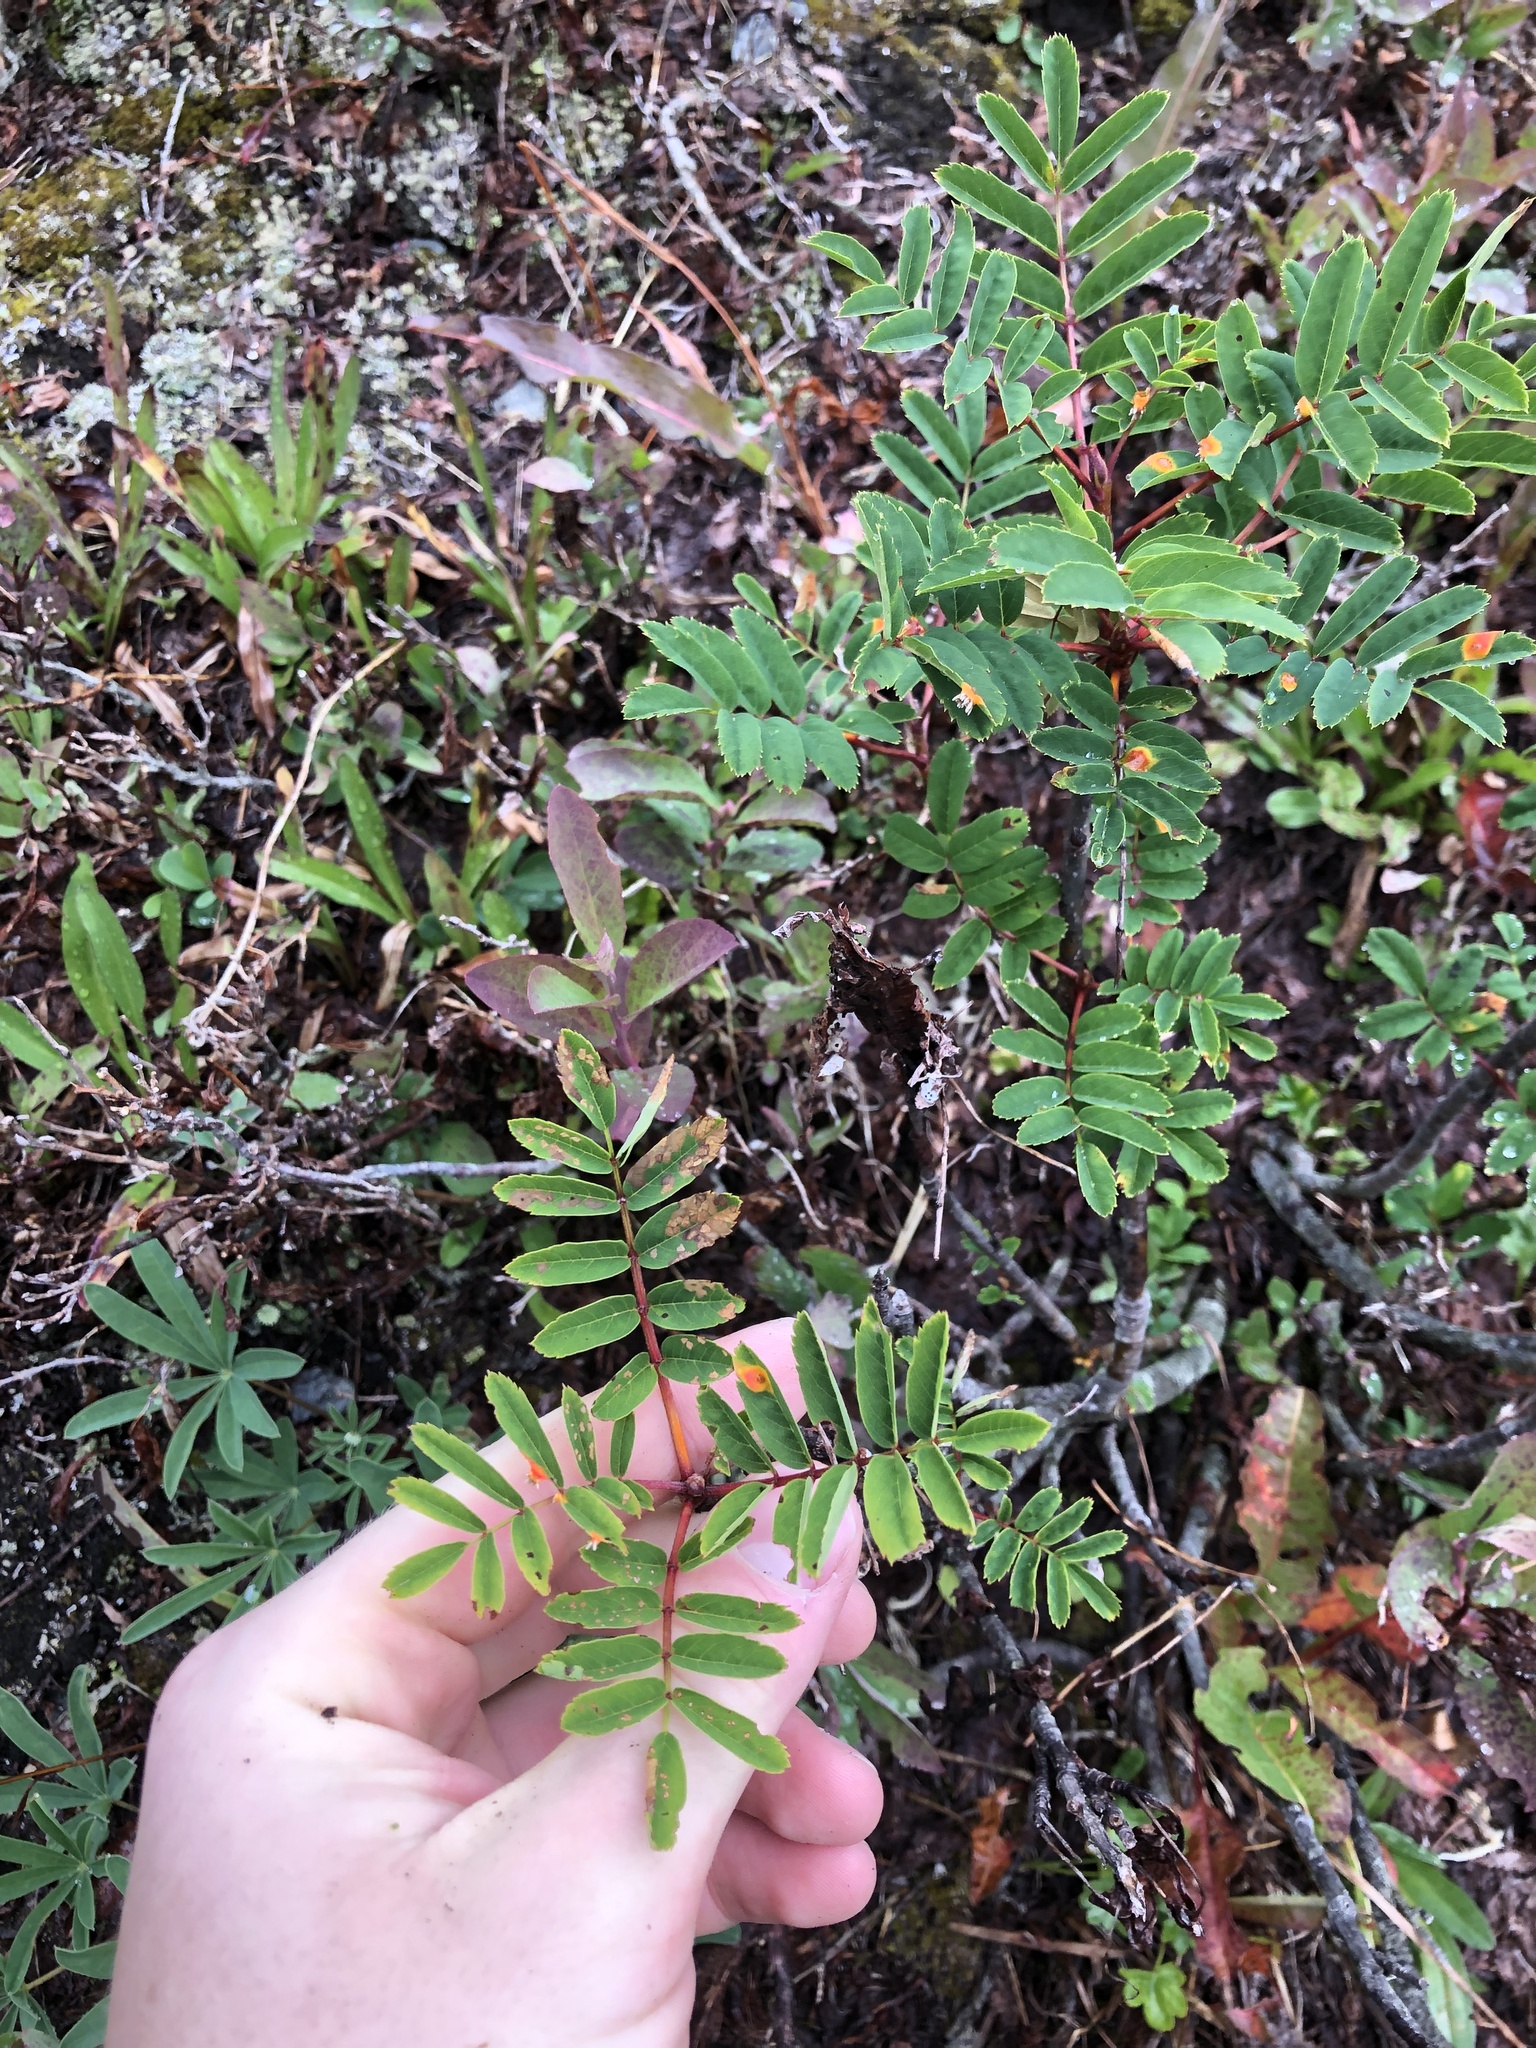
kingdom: Plantae
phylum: Tracheophyta
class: Magnoliopsida
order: Rosales
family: Rosaceae
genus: Sorbus
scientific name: Sorbus sitchensis
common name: Sitka mountain-ash
